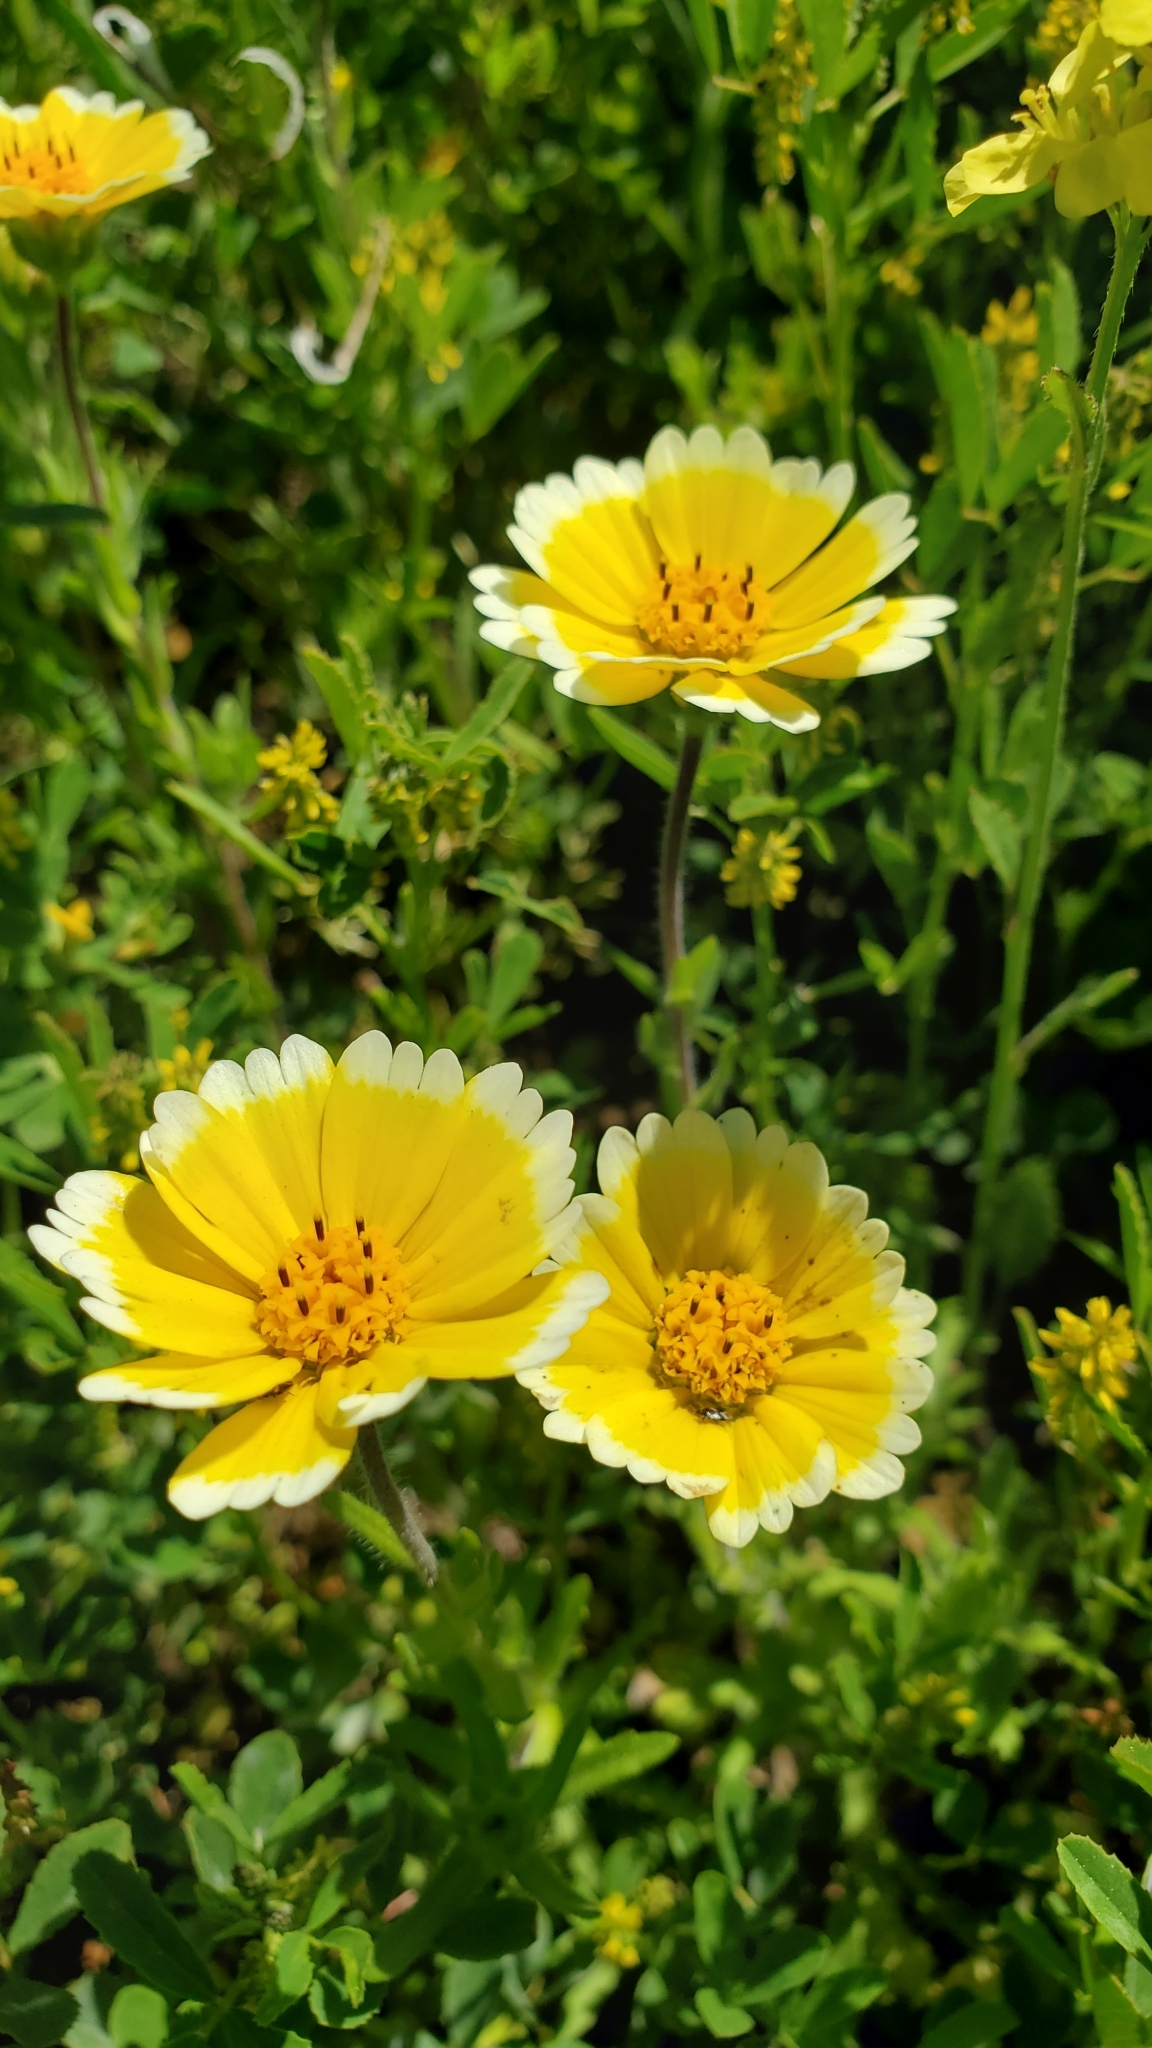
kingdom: Plantae
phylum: Tracheophyta
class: Magnoliopsida
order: Asterales
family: Asteraceae
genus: Layia
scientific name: Layia platyglossa
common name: Tidy-tips
